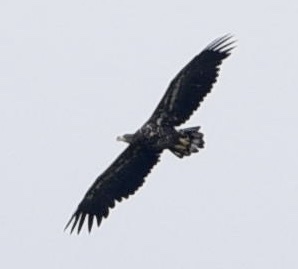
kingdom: Animalia
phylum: Chordata
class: Aves
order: Accipitriformes
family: Accipitridae
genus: Haliaeetus
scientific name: Haliaeetus albicilla
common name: White-tailed eagle
